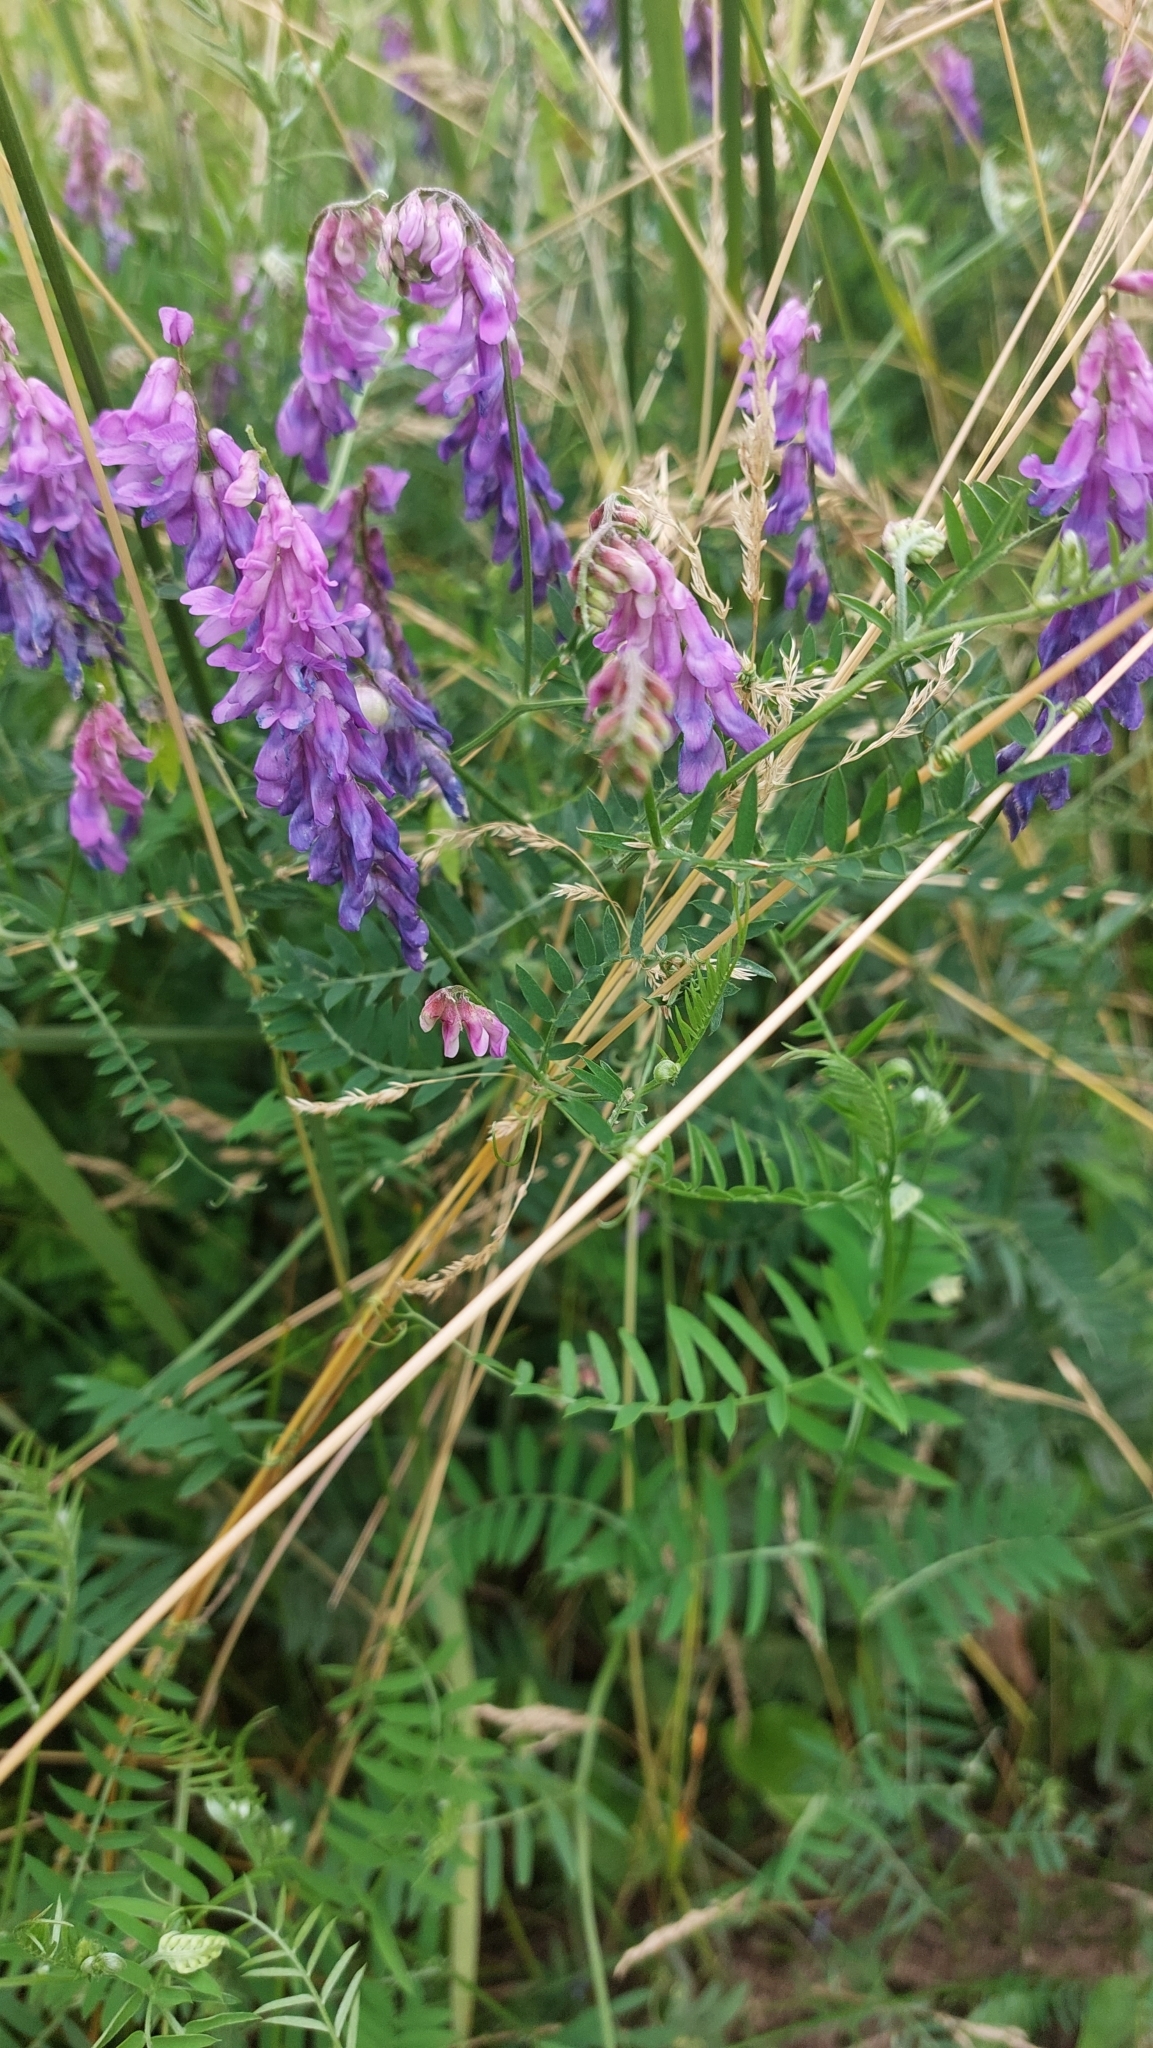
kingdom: Plantae
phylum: Tracheophyta
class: Magnoliopsida
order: Fabales
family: Fabaceae
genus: Vicia
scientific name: Vicia cracca
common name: Bird vetch
